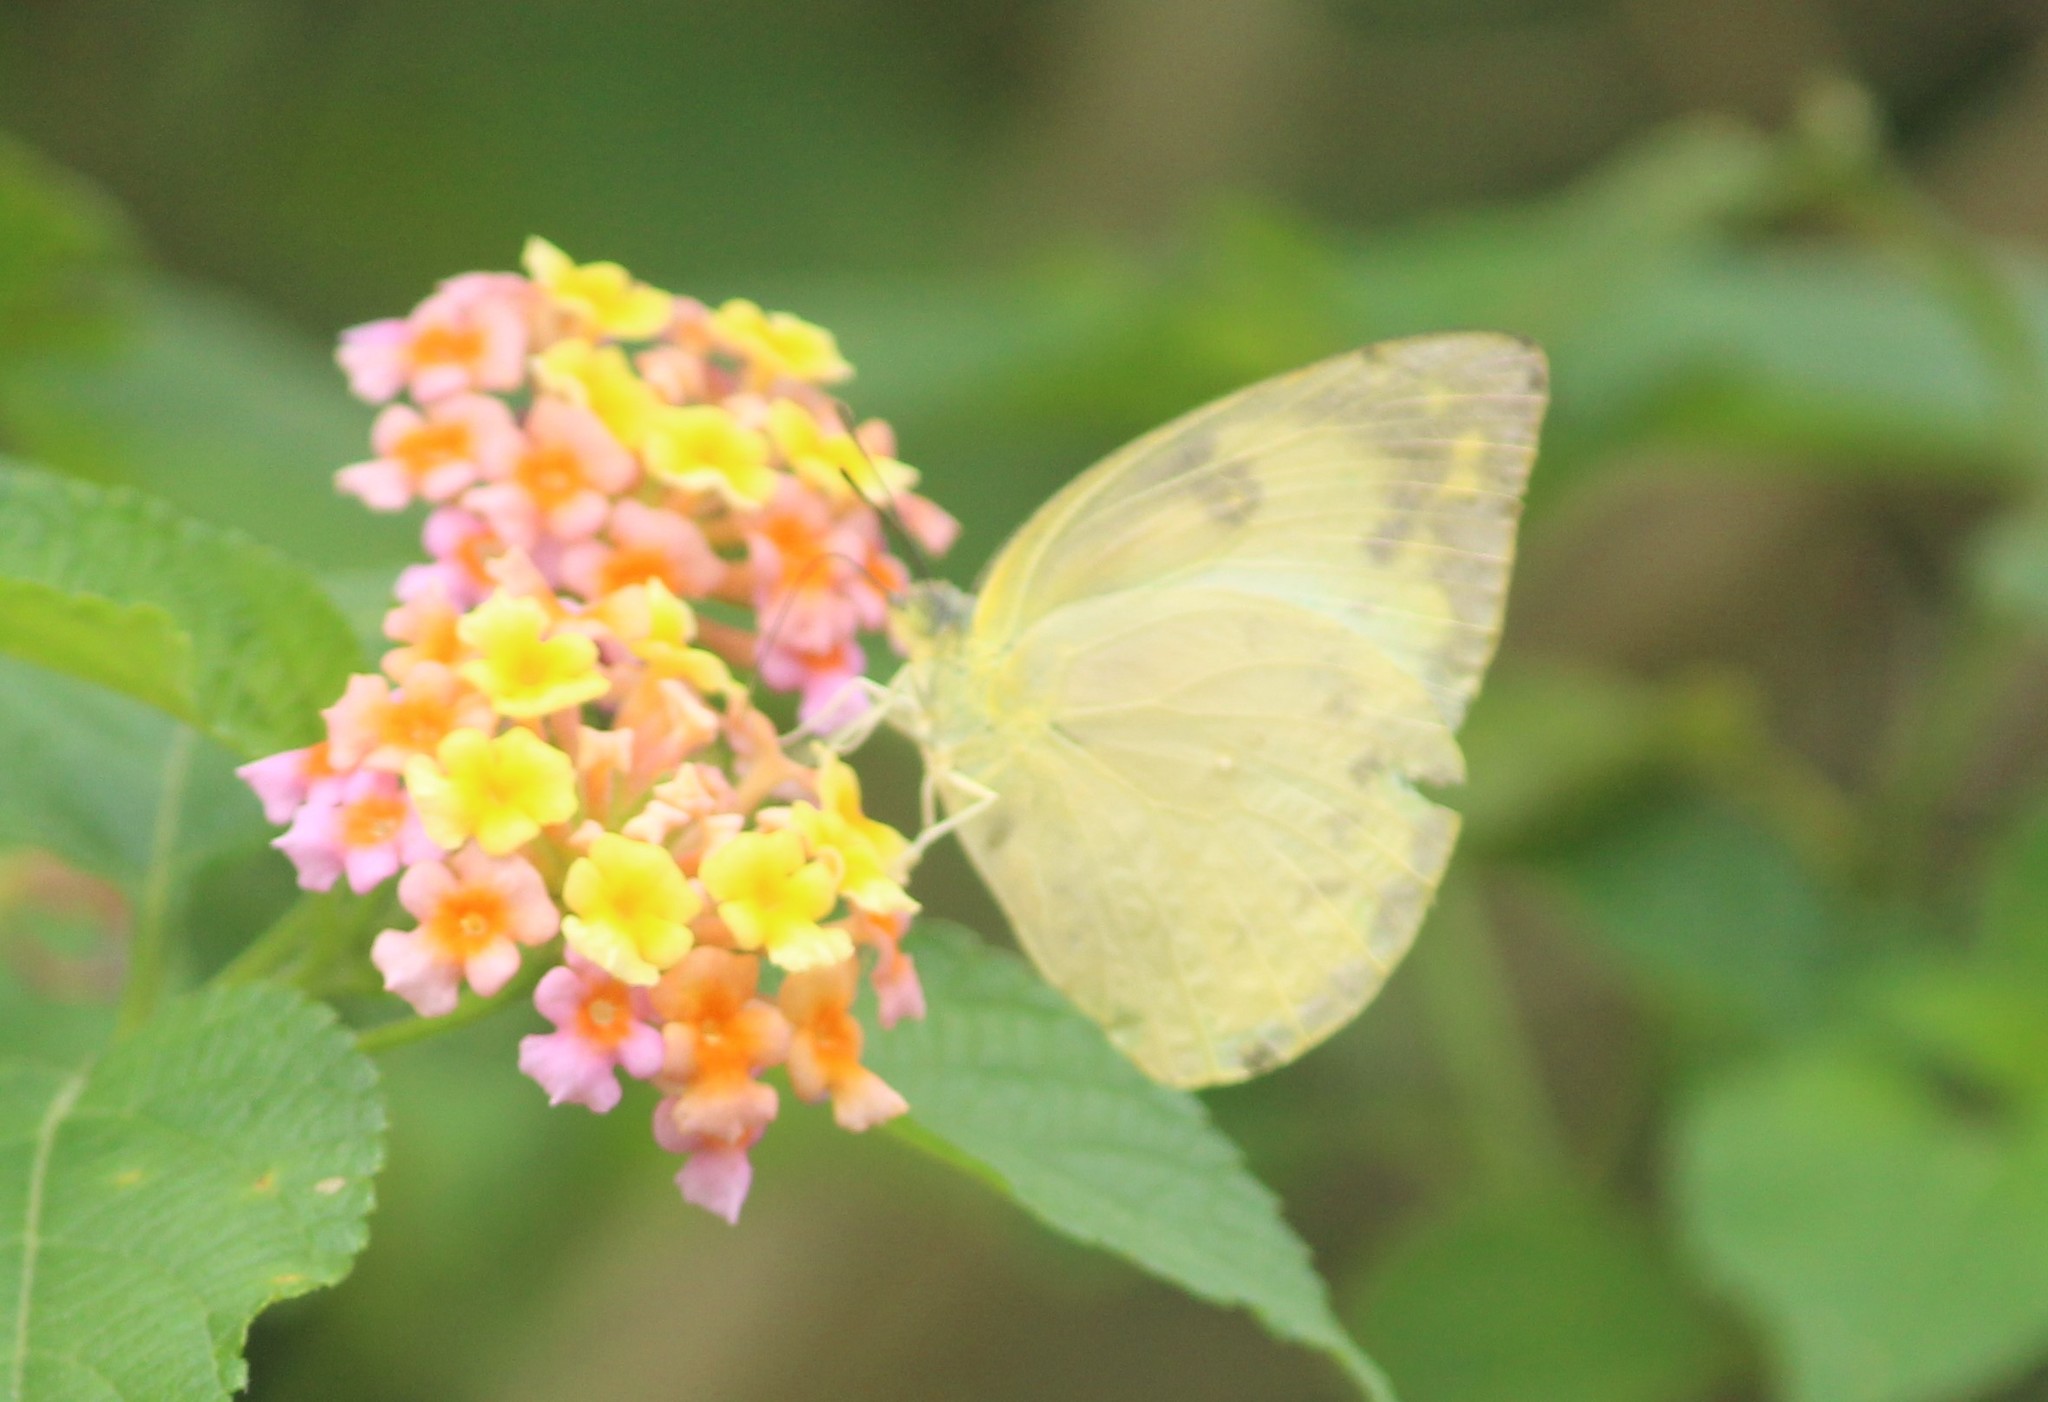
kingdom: Animalia
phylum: Arthropoda
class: Insecta
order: Lepidoptera
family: Pieridae
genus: Catopsilia
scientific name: Catopsilia pomona
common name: Common emigrant
